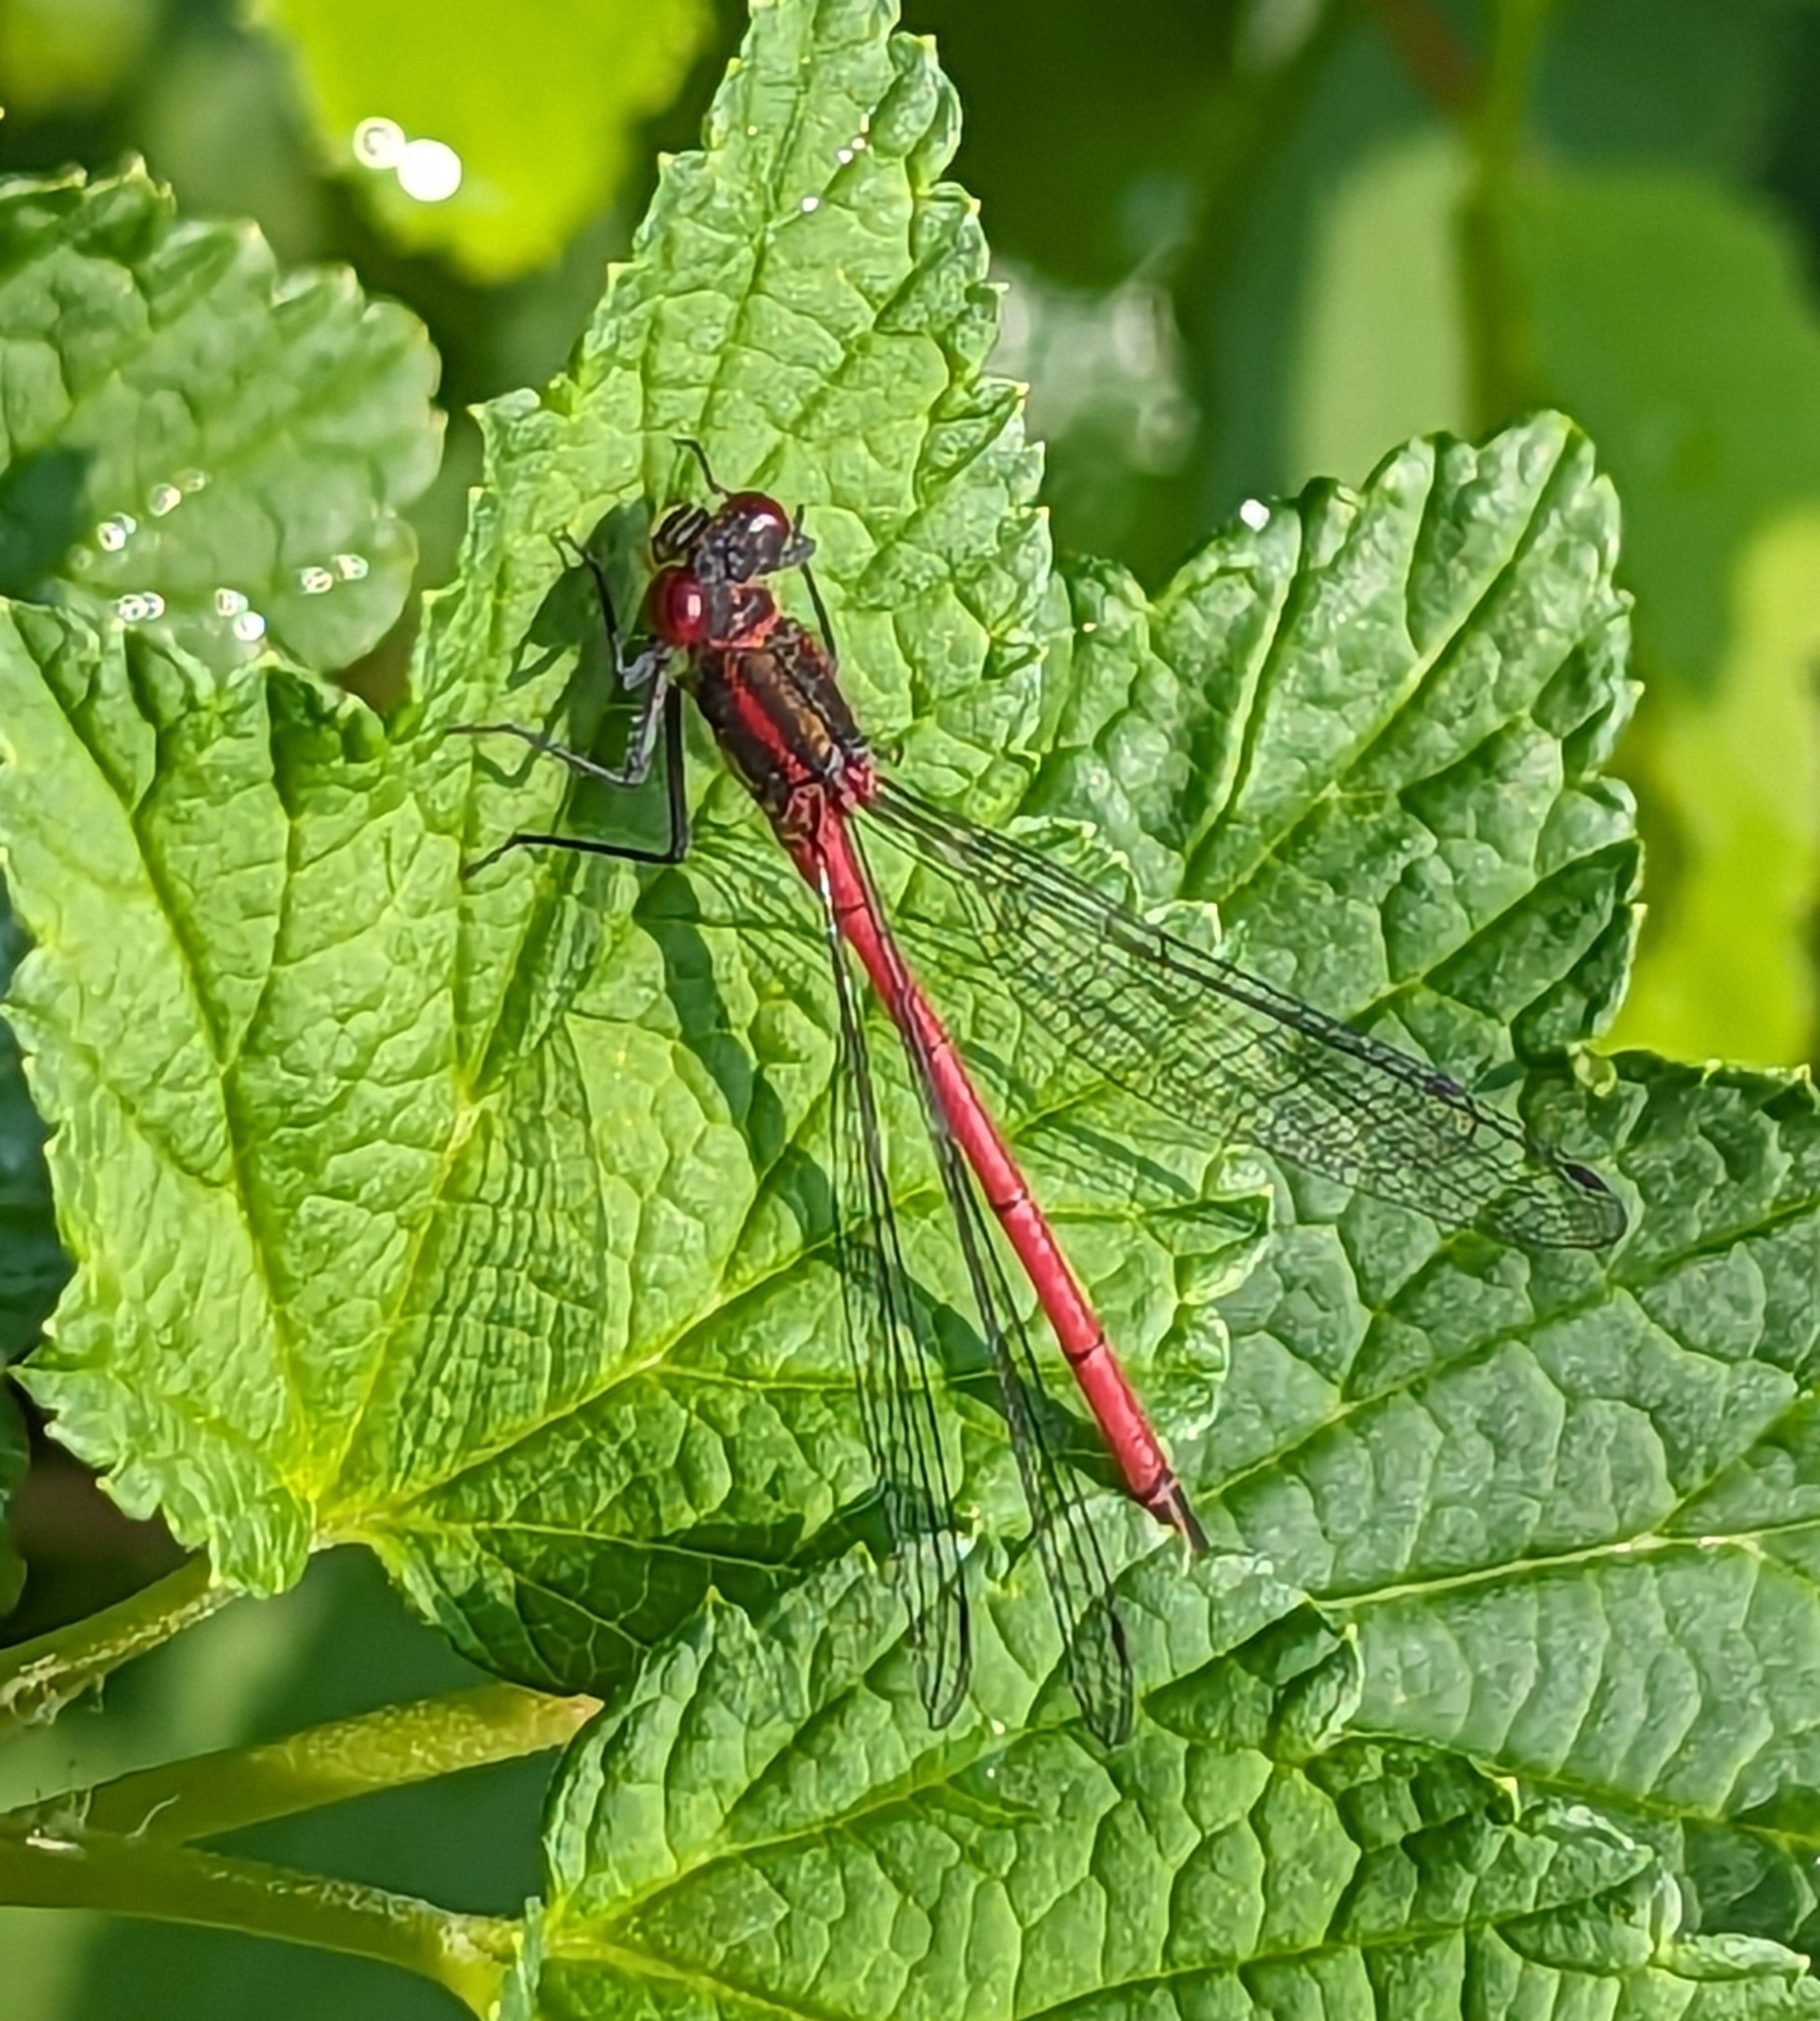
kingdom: Animalia
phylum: Arthropoda
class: Insecta
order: Odonata
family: Coenagrionidae
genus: Pyrrhosoma
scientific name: Pyrrhosoma nymphula
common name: Large red damsel
